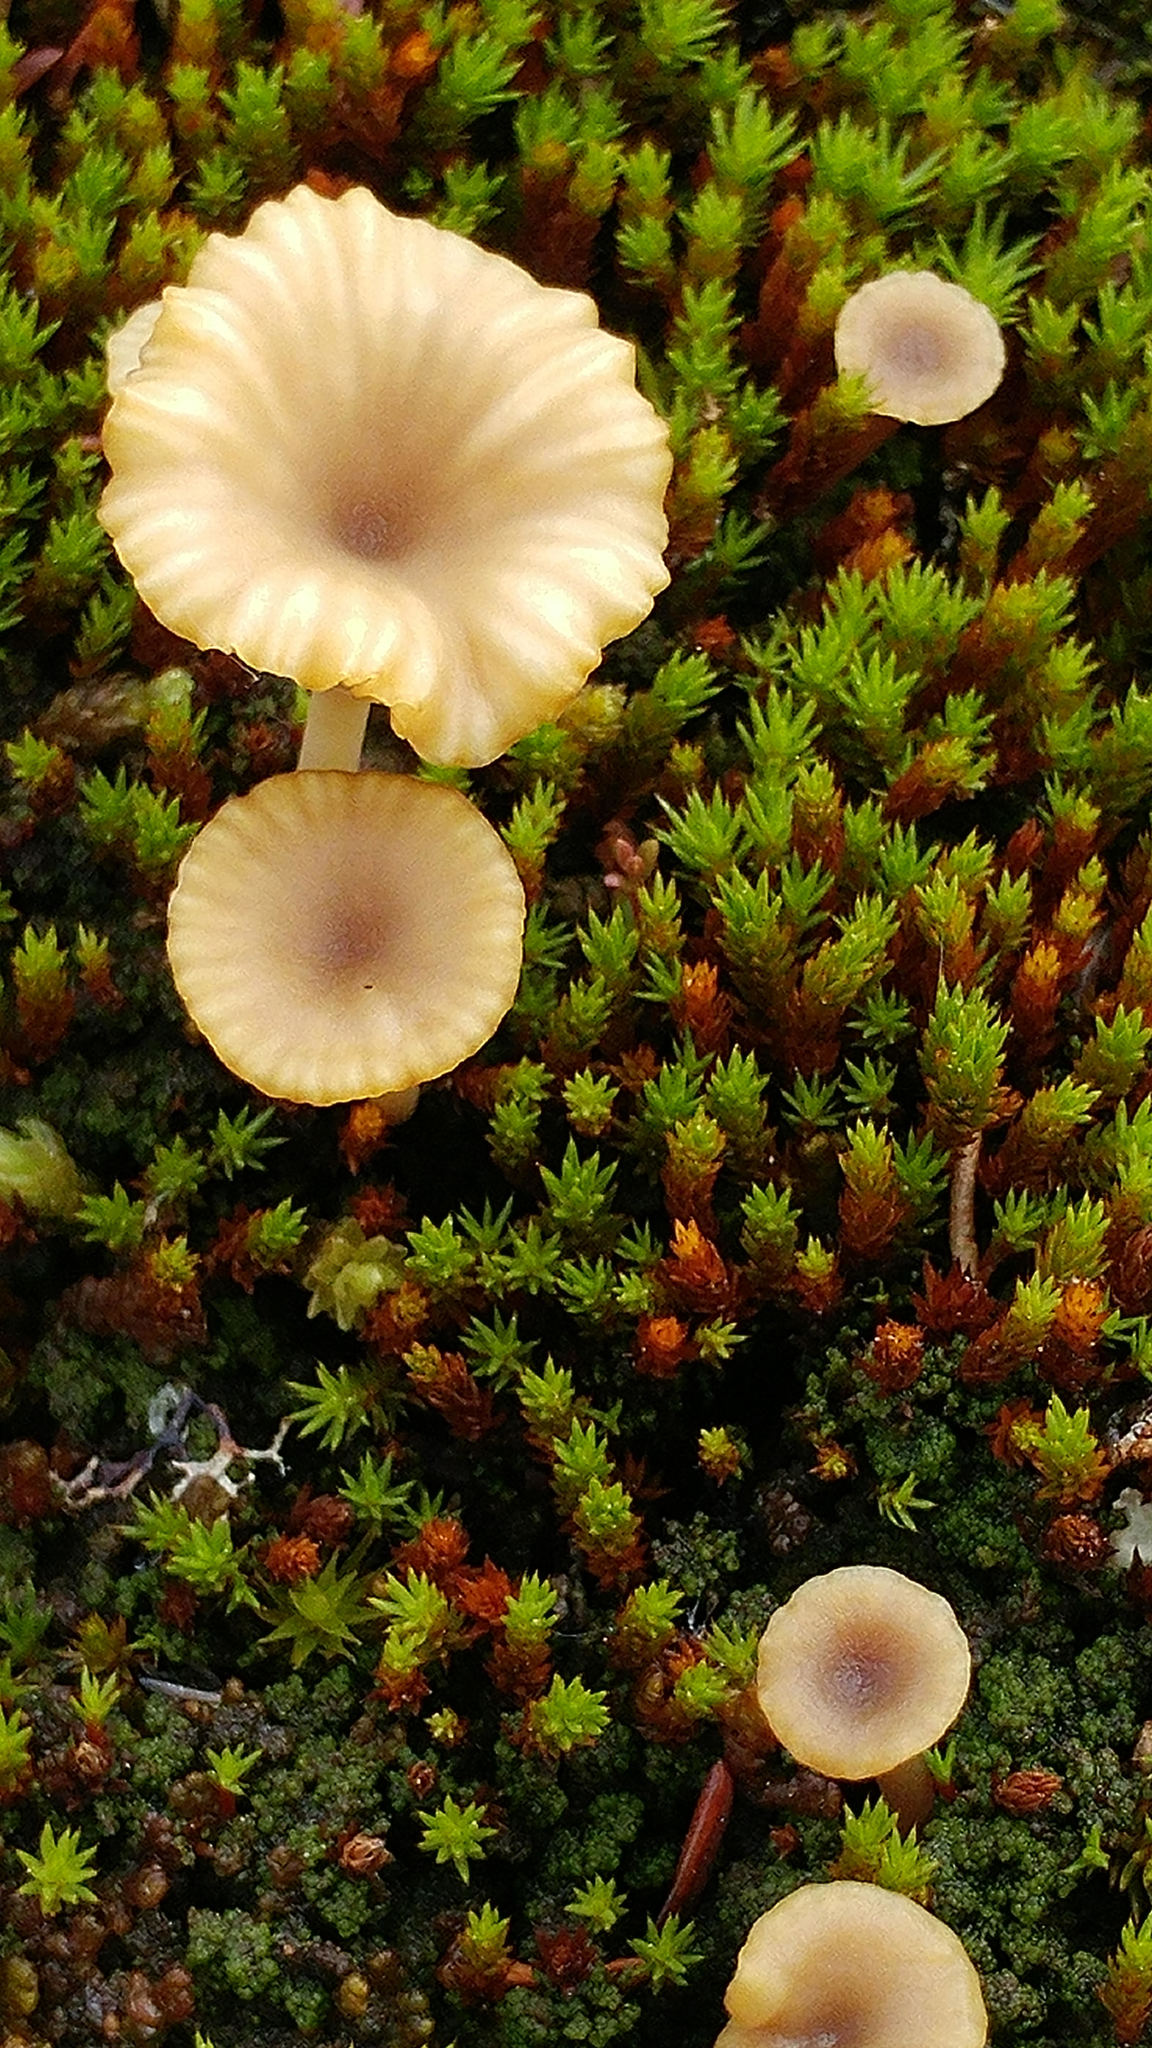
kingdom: Fungi
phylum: Basidiomycota
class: Agaricomycetes
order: Agaricales
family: Hygrophoraceae
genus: Lichenomphalia
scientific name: Lichenomphalia
